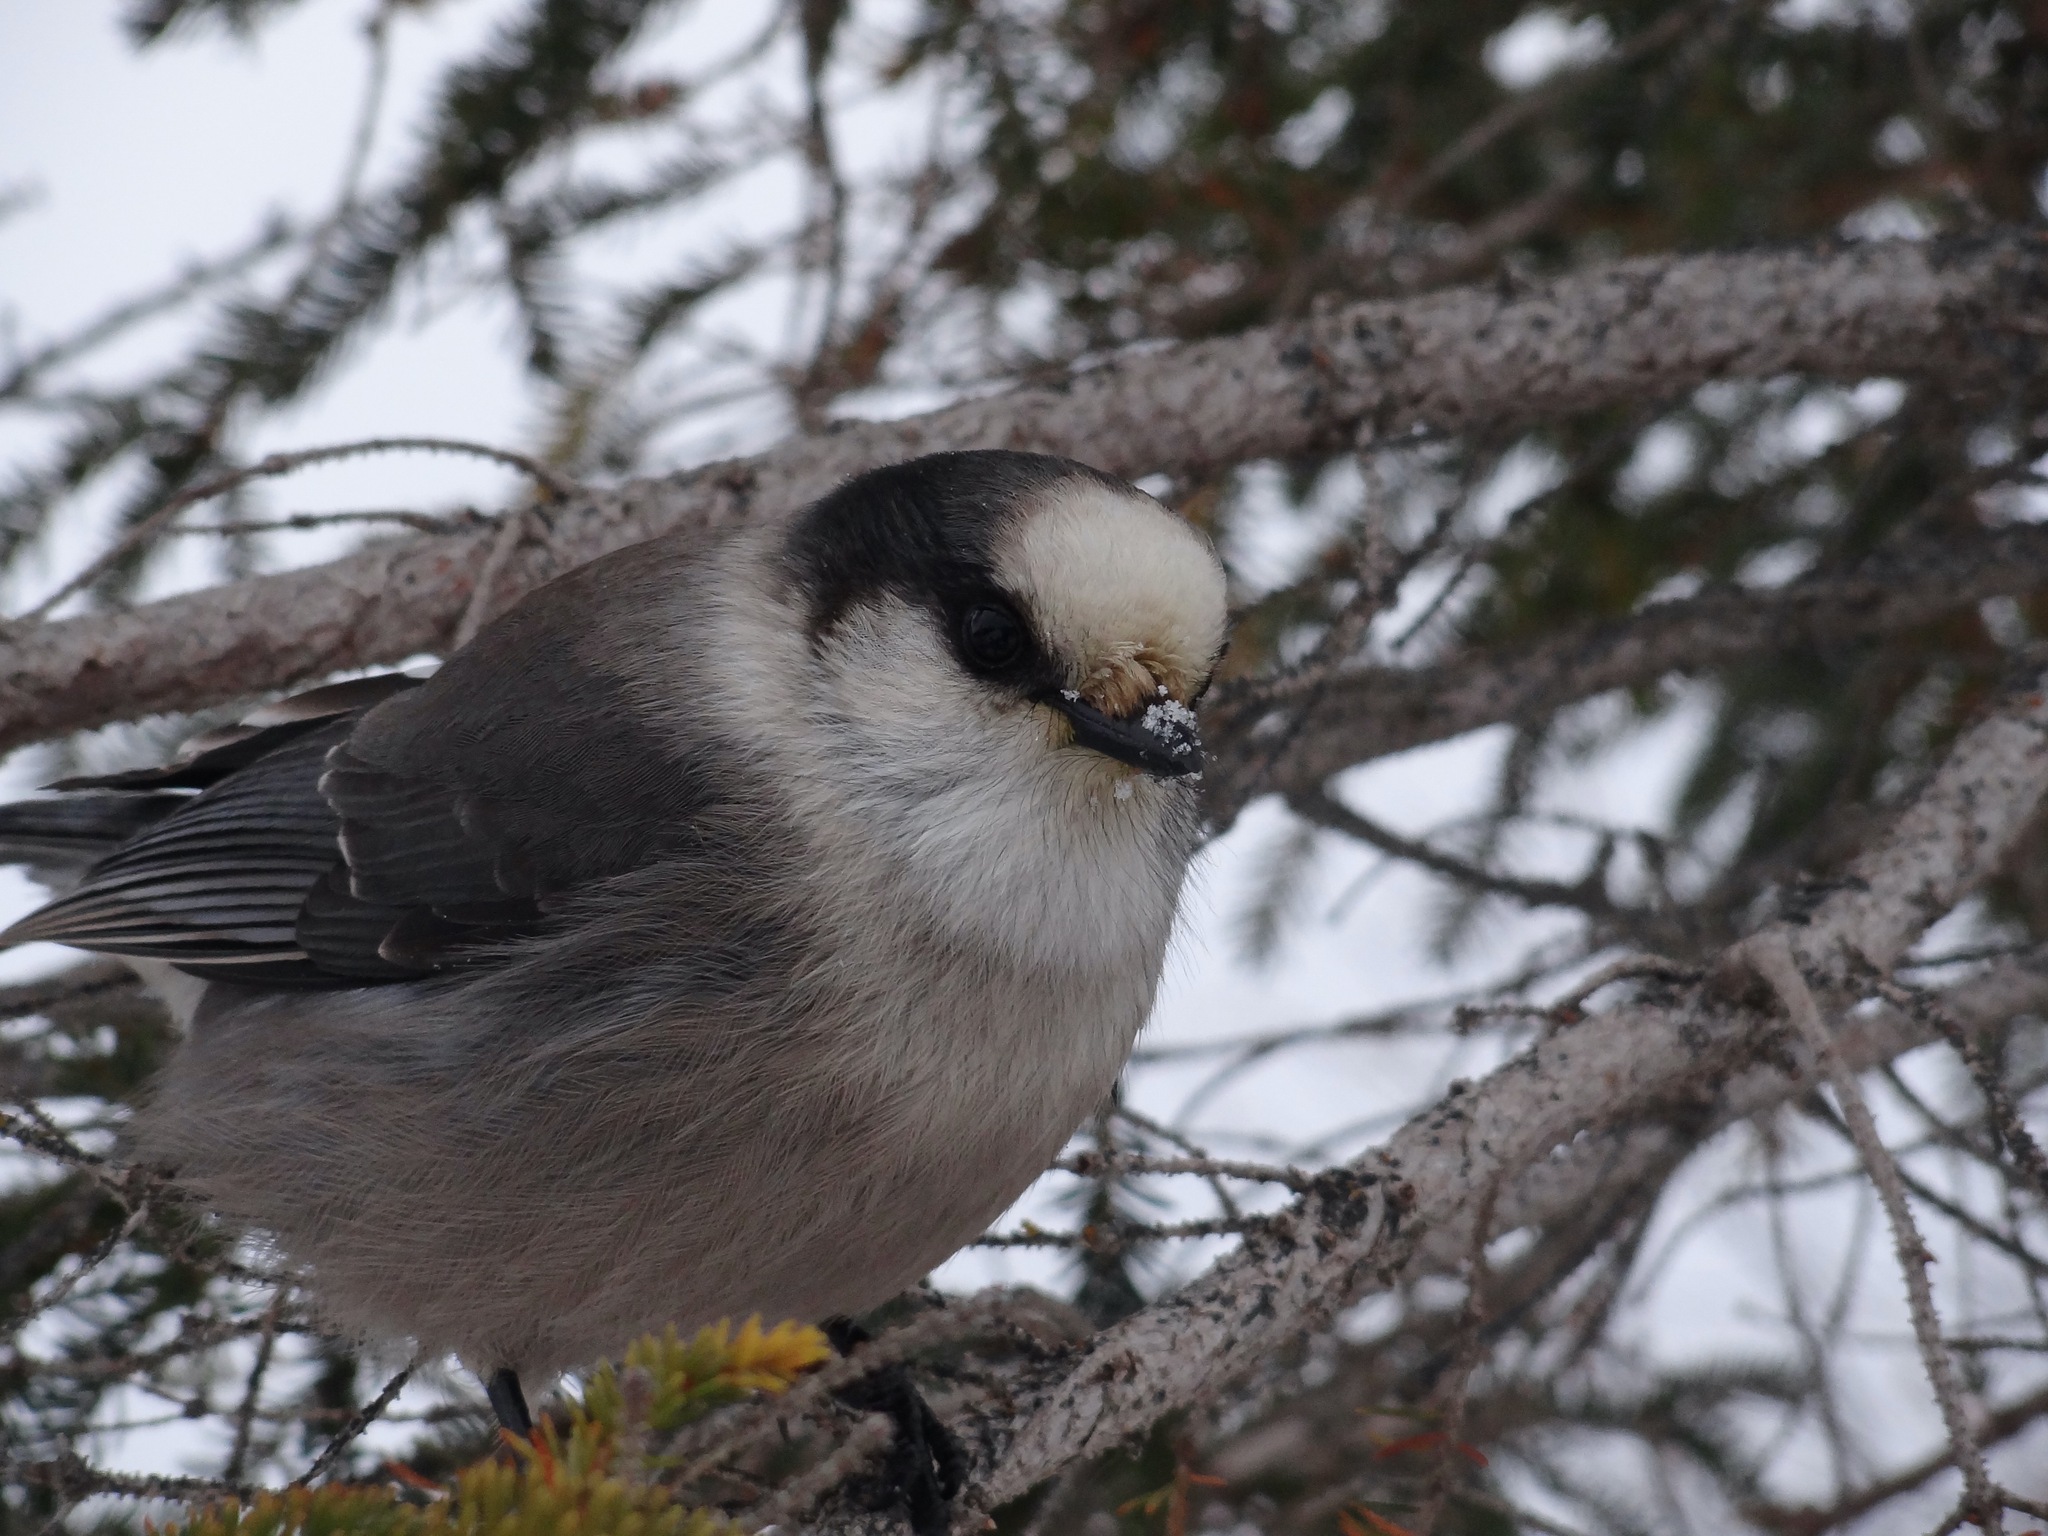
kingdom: Animalia
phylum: Chordata
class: Aves
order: Passeriformes
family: Corvidae
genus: Perisoreus
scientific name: Perisoreus canadensis
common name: Gray jay
